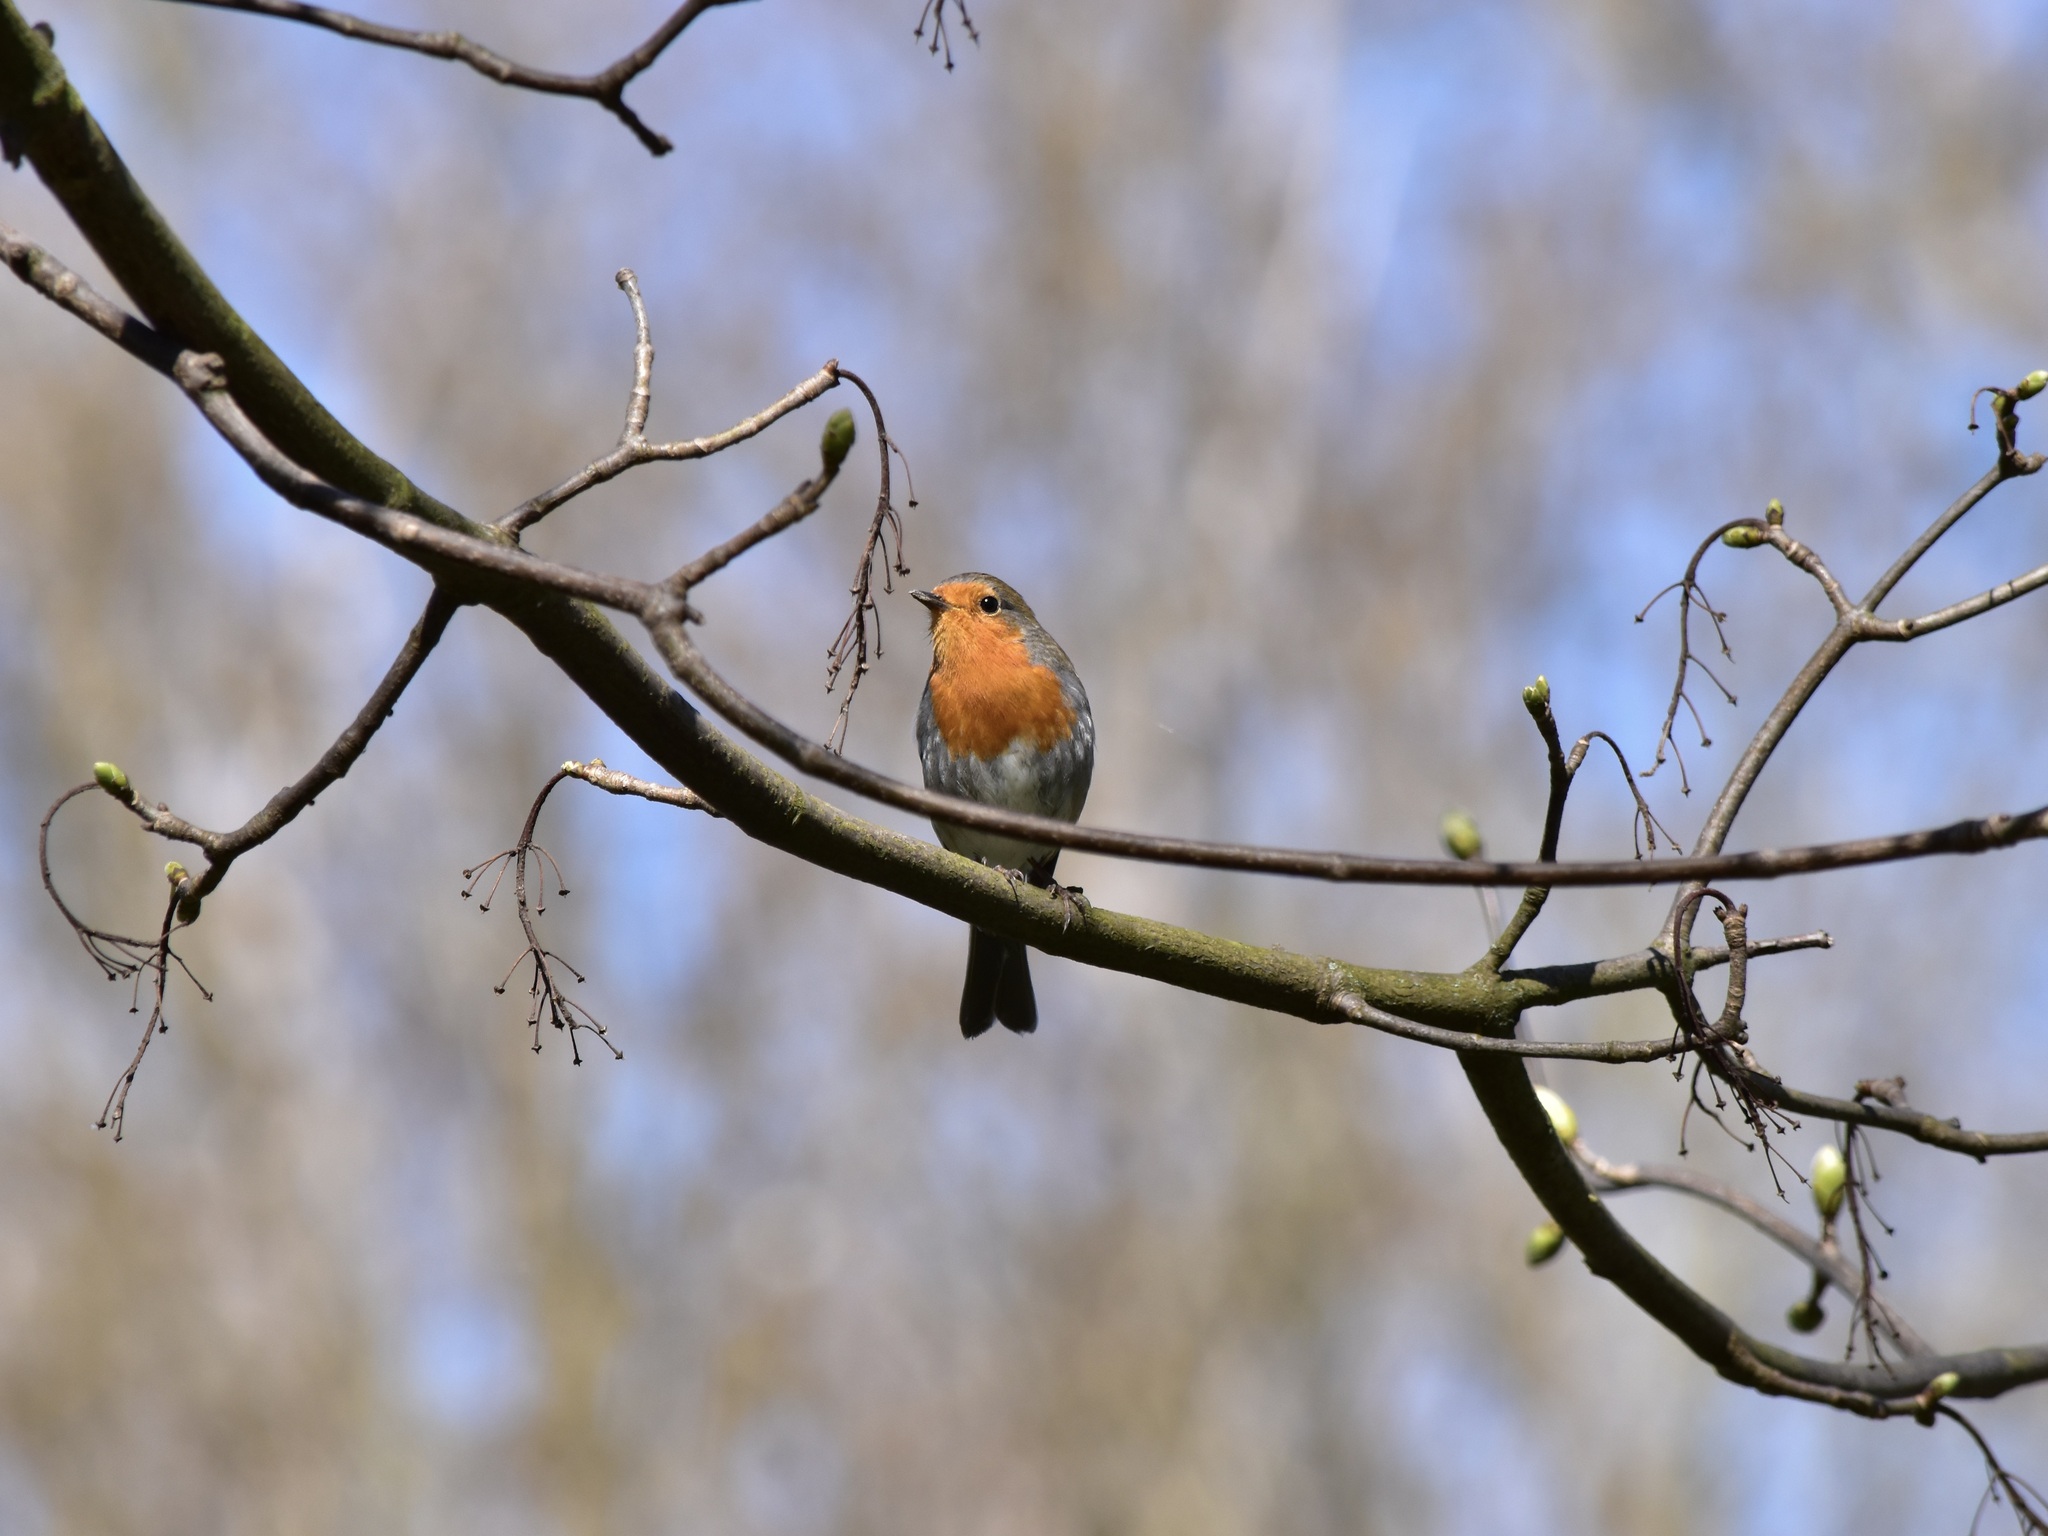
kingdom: Animalia
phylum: Chordata
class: Aves
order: Passeriformes
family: Muscicapidae
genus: Erithacus
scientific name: Erithacus rubecula
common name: European robin
